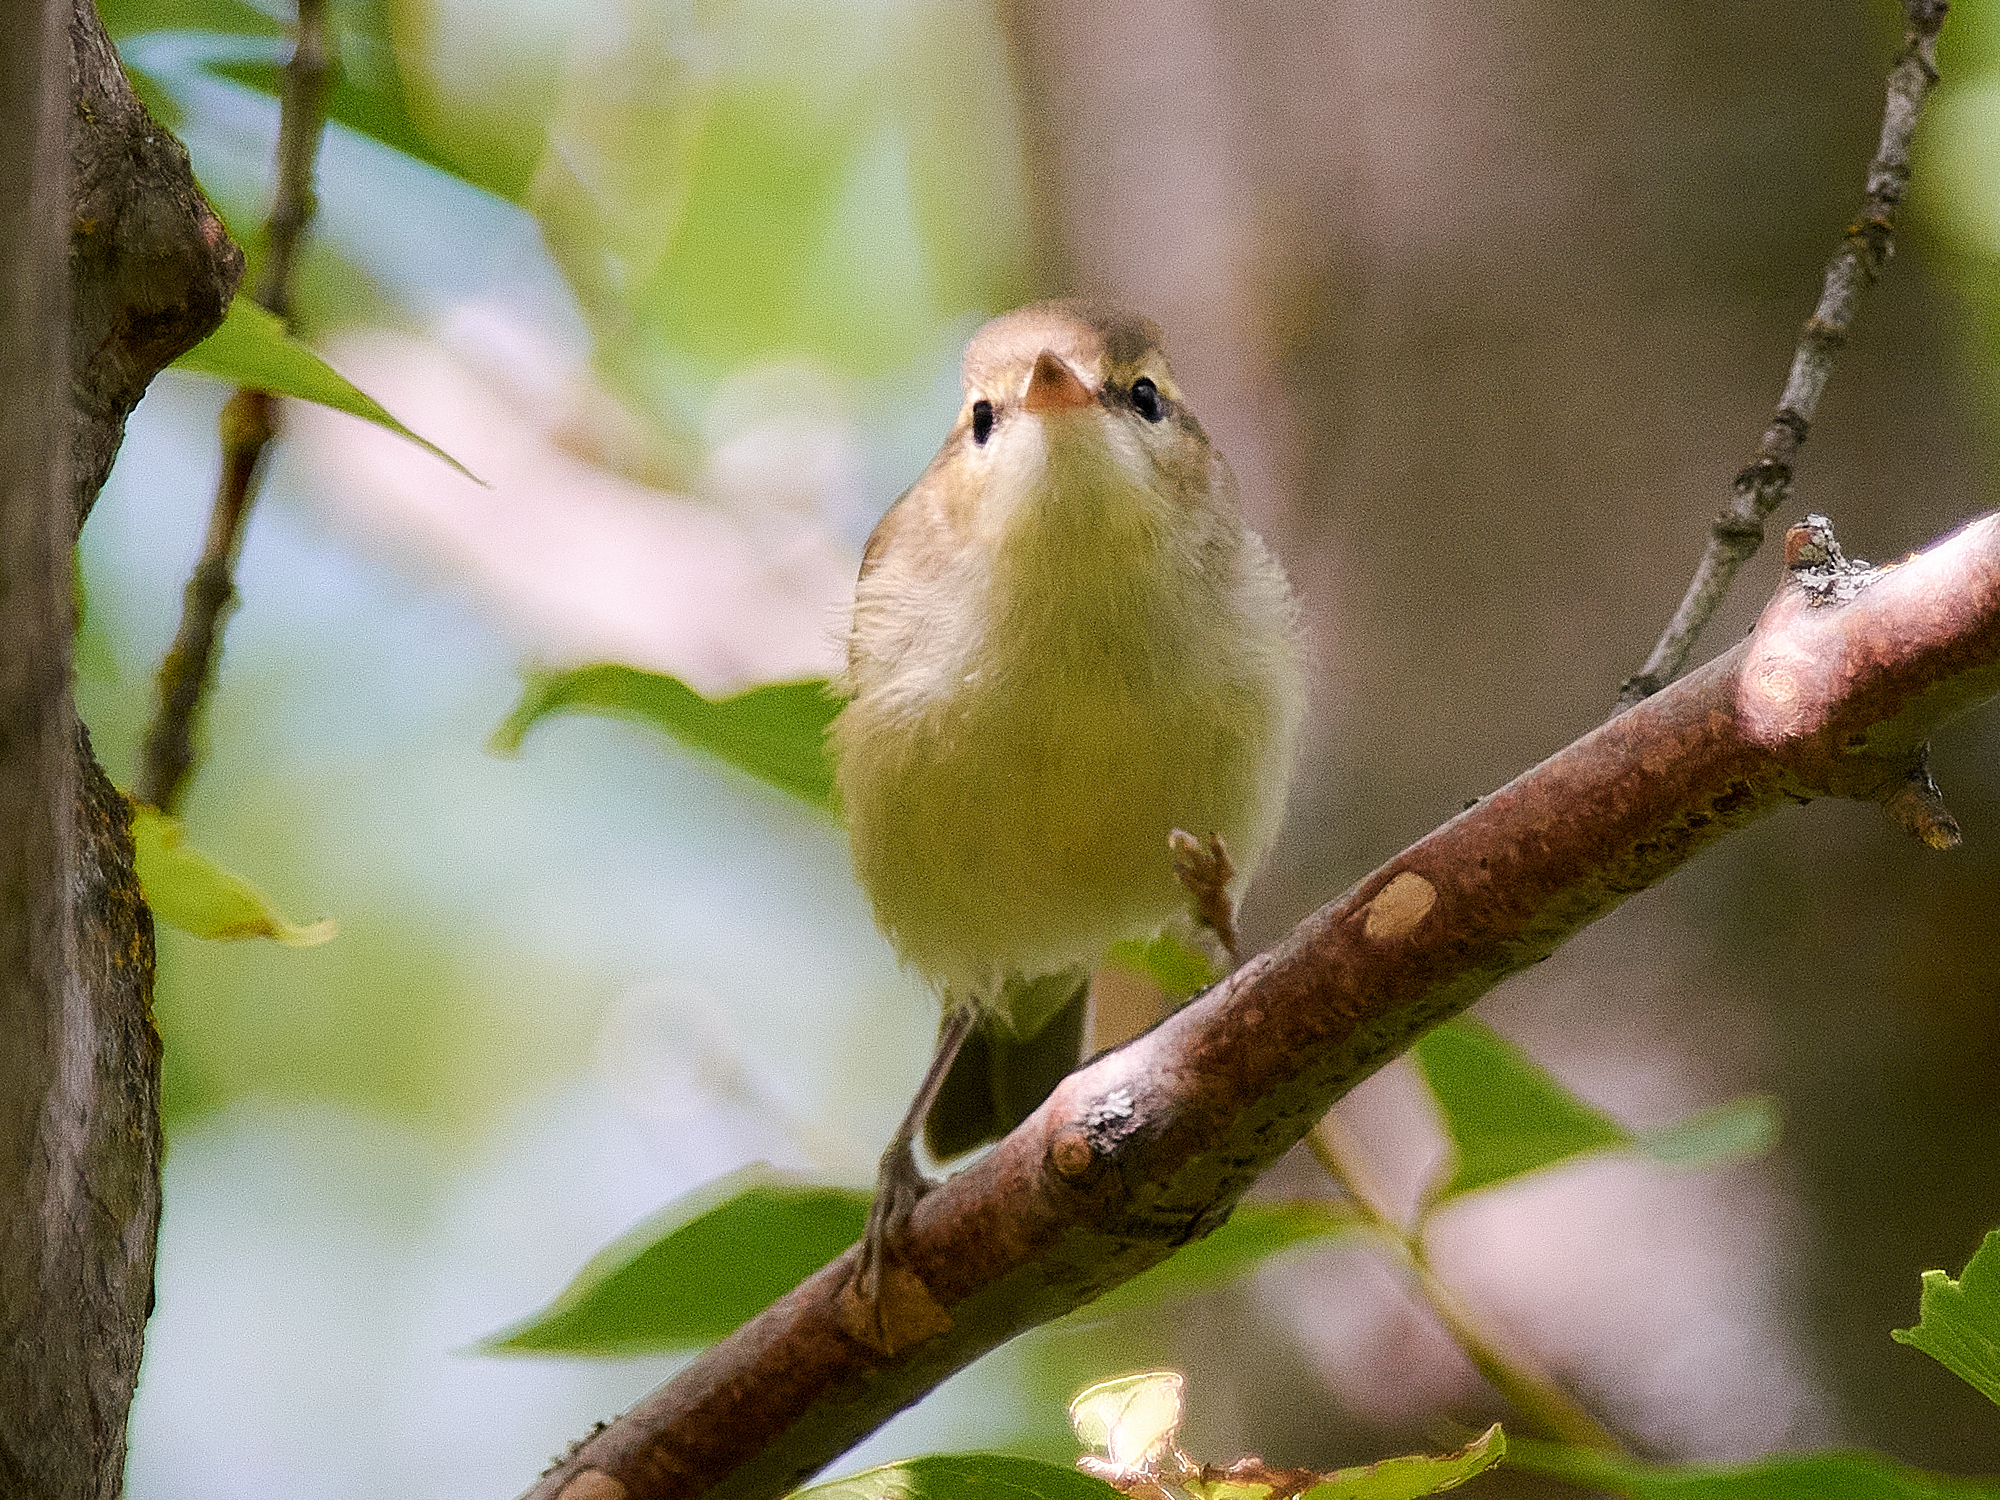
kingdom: Animalia
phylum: Chordata
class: Aves
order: Passeriformes
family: Phylloscopidae
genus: Phylloscopus
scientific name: Phylloscopus trochiloides
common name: Greenish warbler
